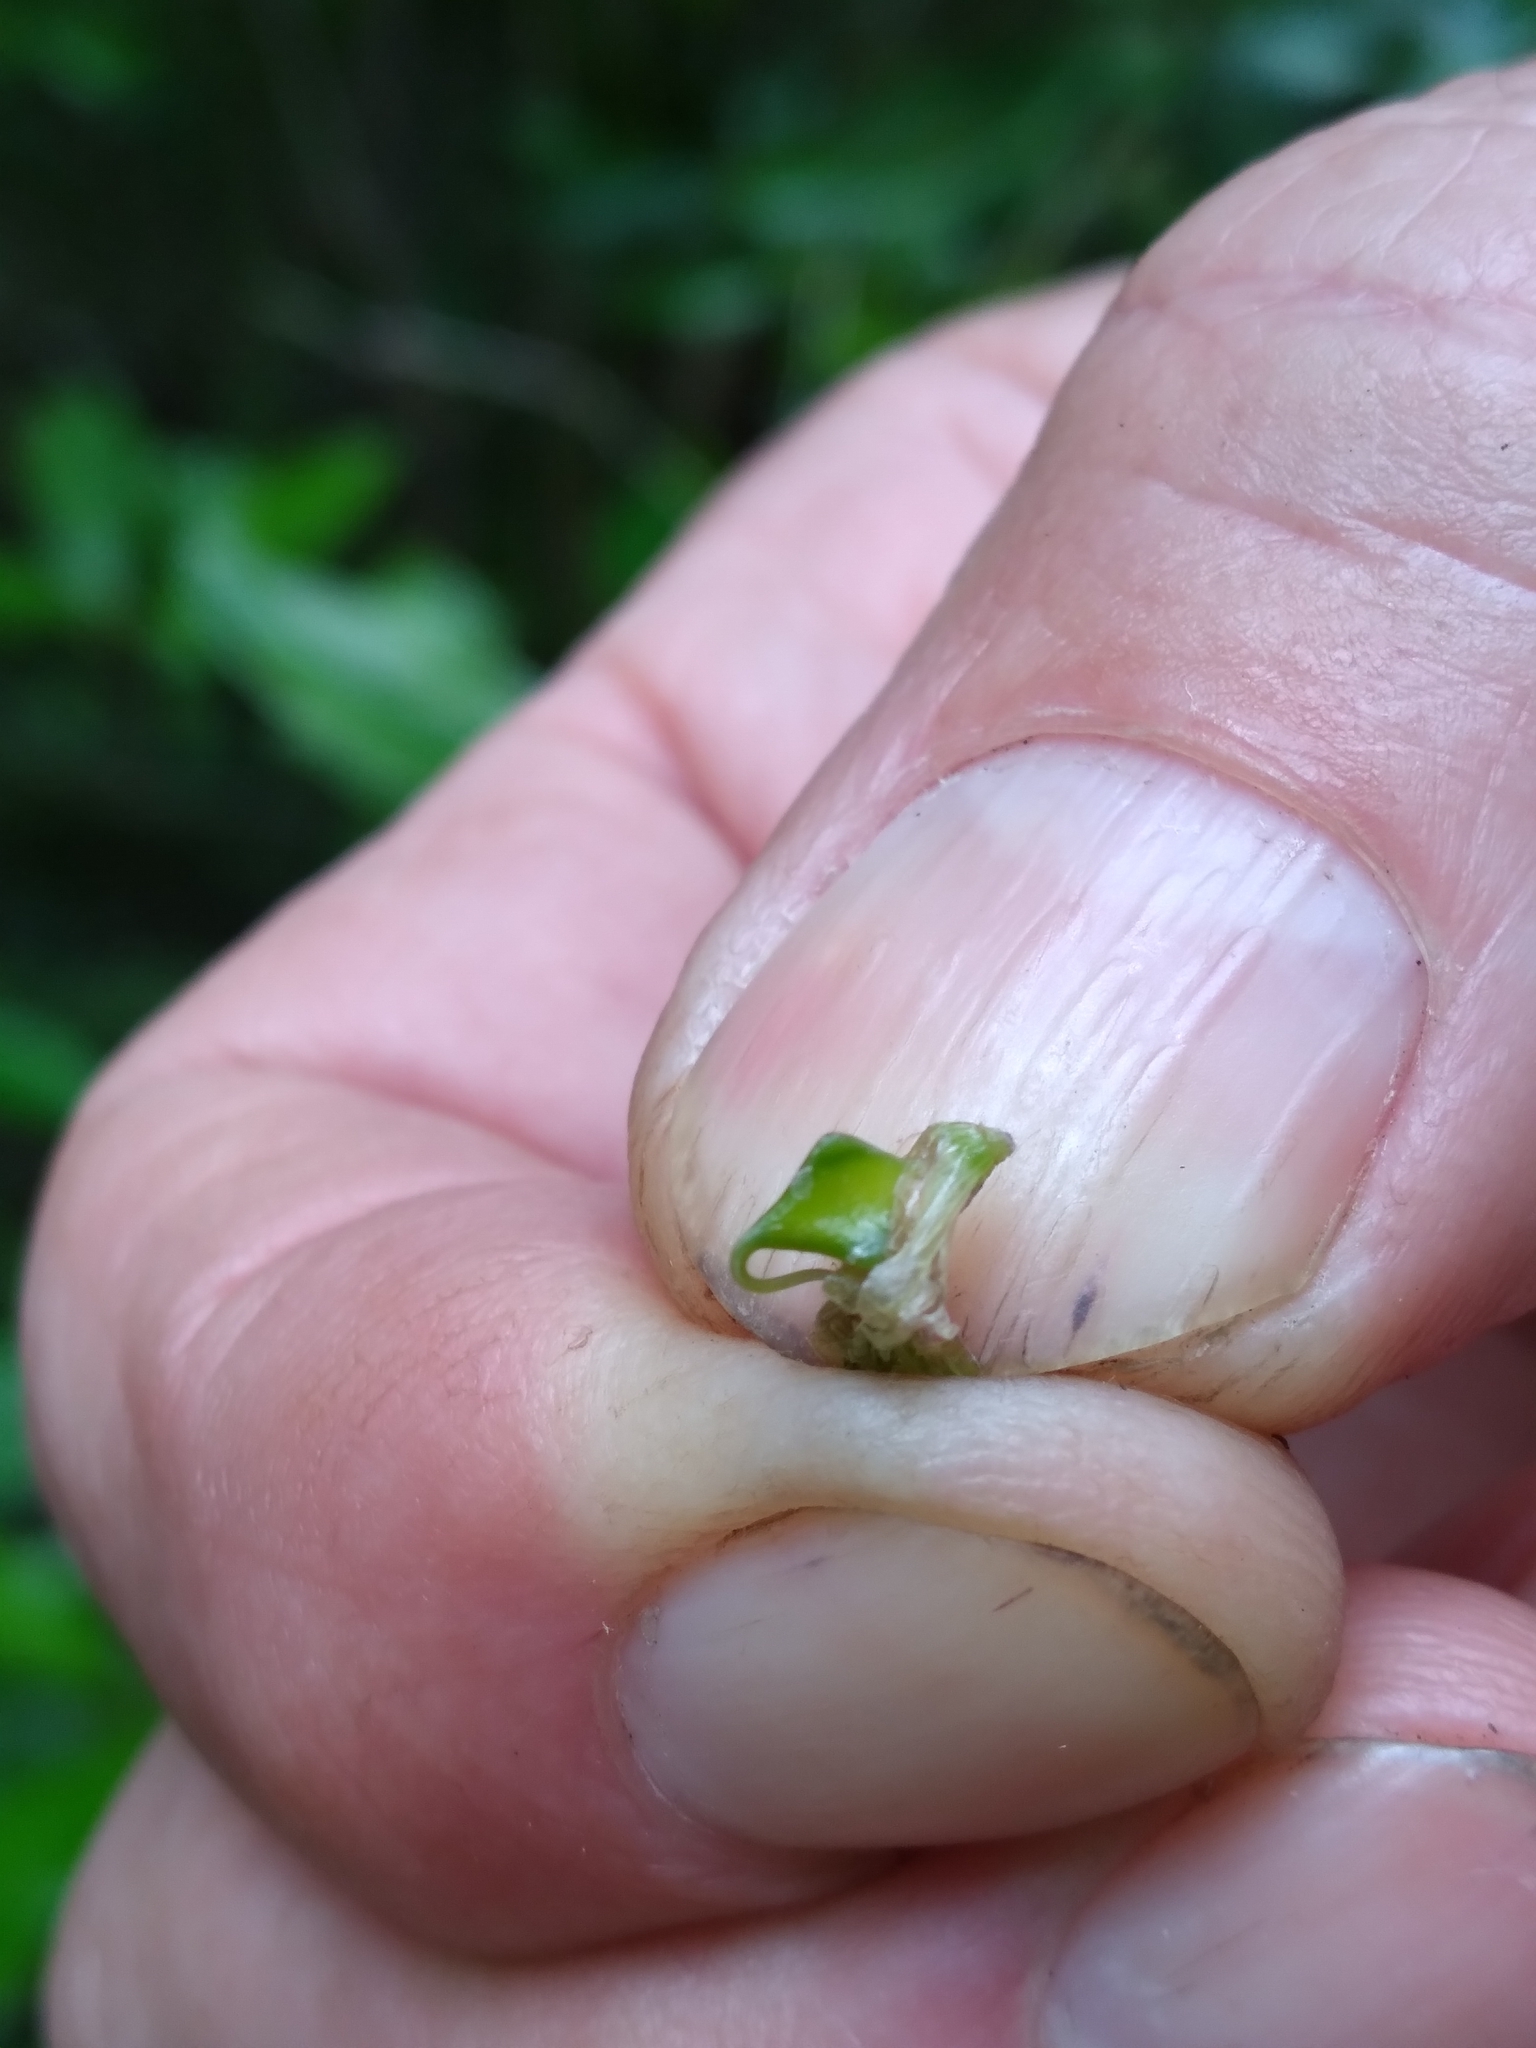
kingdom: Plantae
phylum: Tracheophyta
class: Liliopsida
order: Poales
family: Cyperaceae
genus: Carex
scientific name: Carex lupuliformis
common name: False hop sedge
